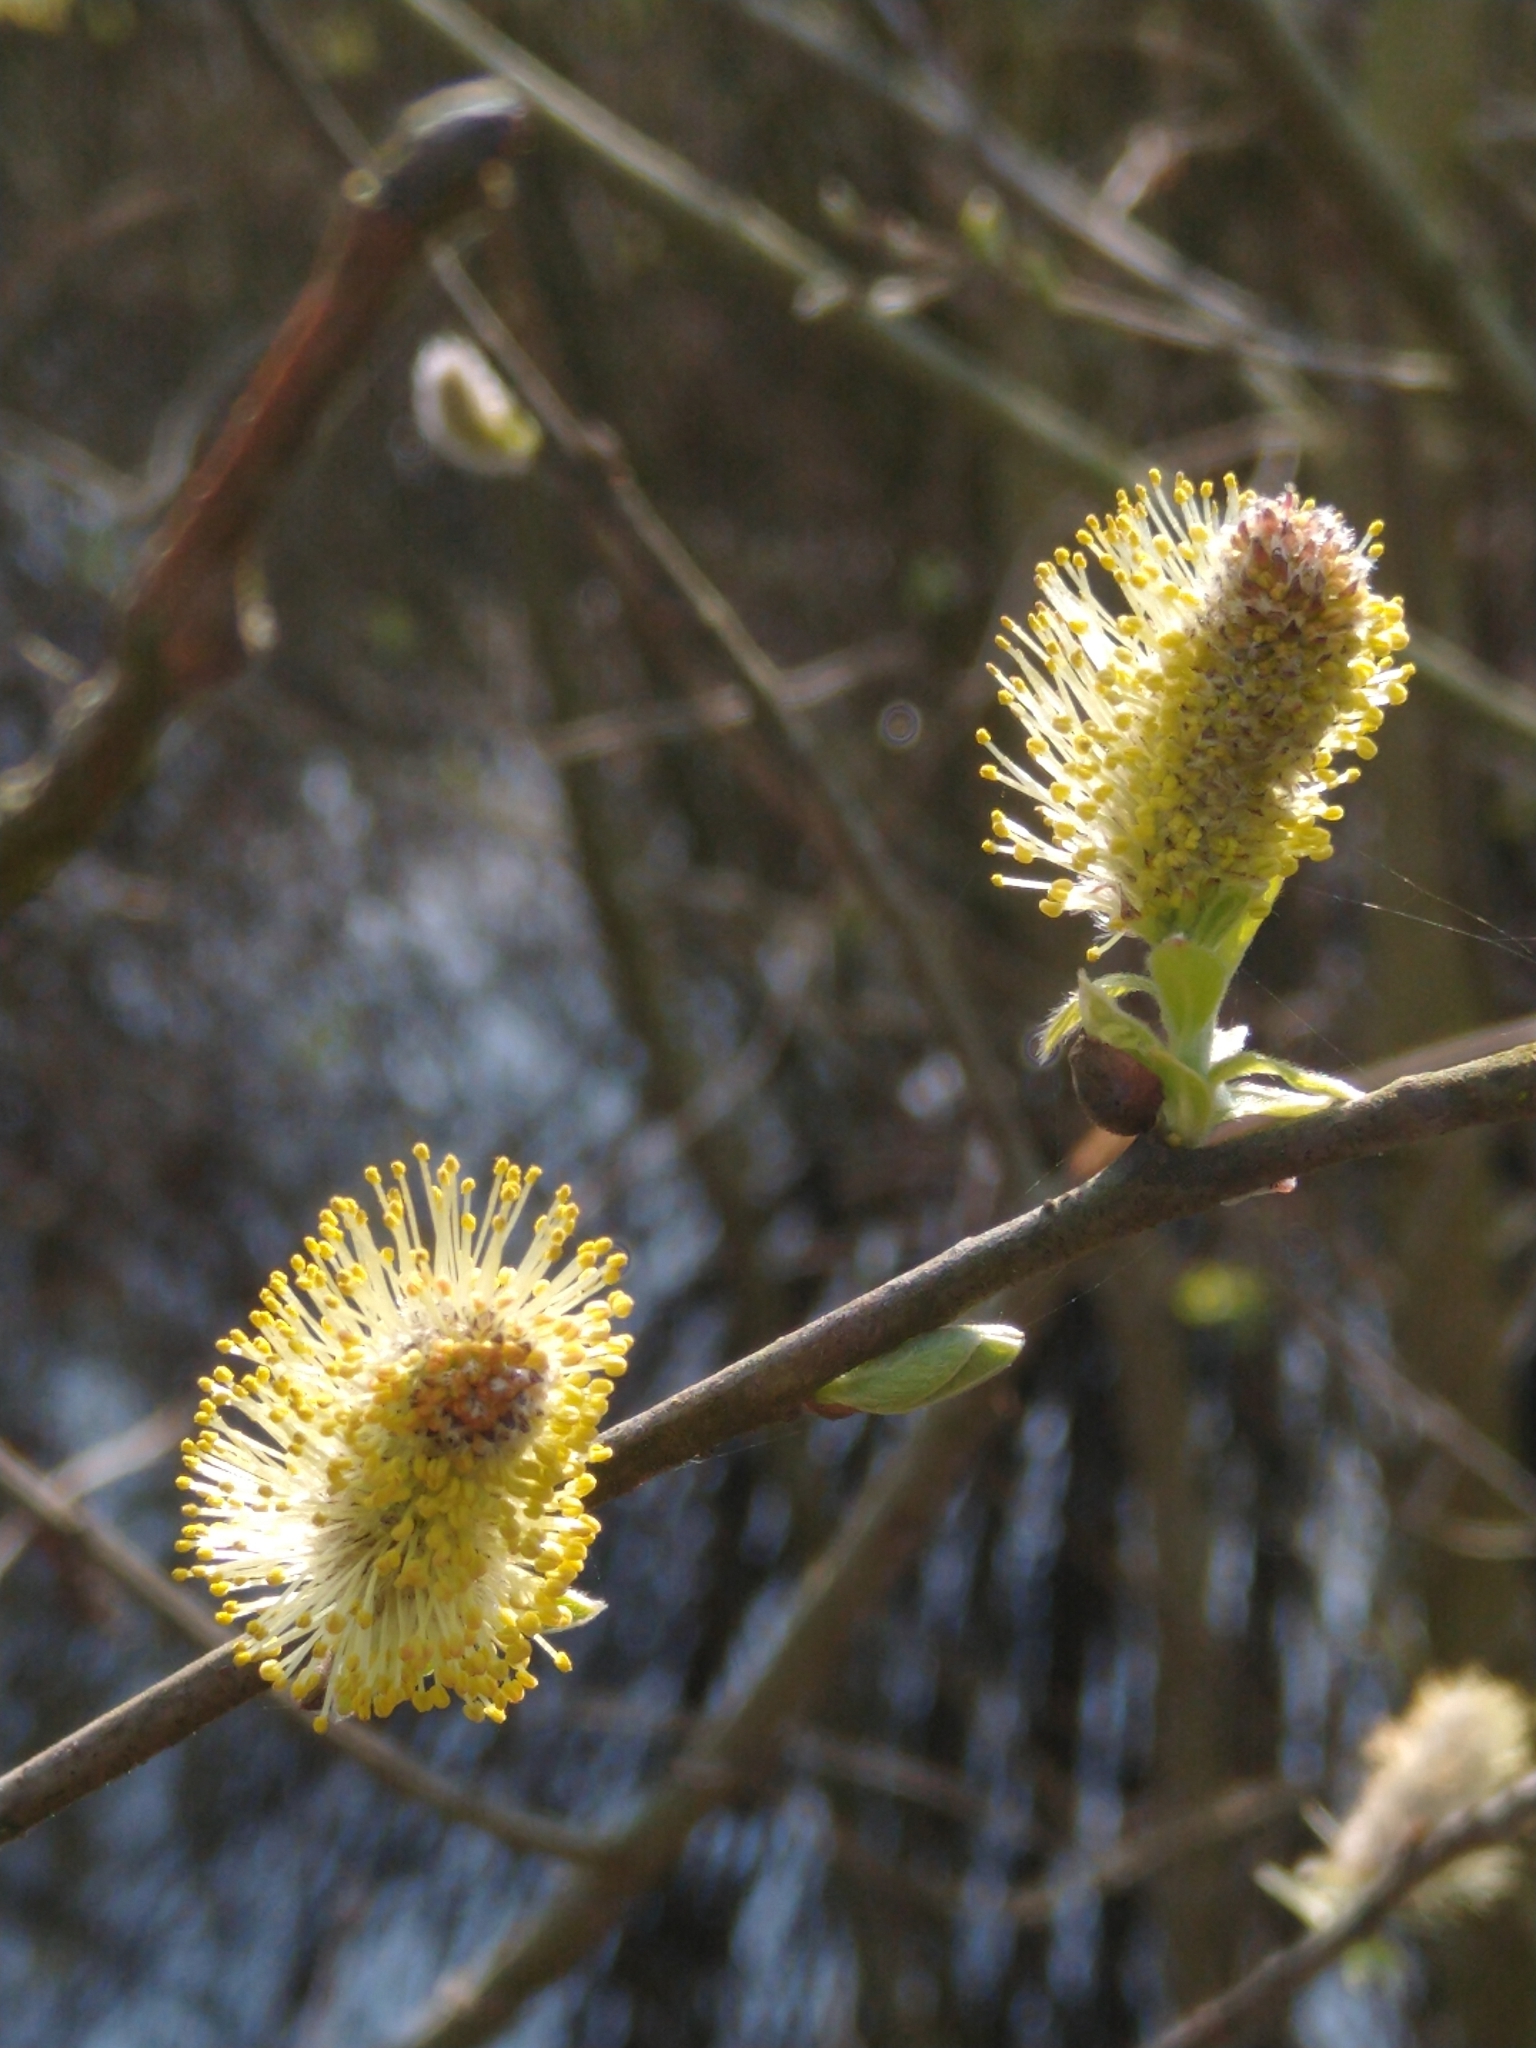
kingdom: Plantae
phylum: Tracheophyta
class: Magnoliopsida
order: Malpighiales
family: Salicaceae
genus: Salix
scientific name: Salix caprea
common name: Goat willow
